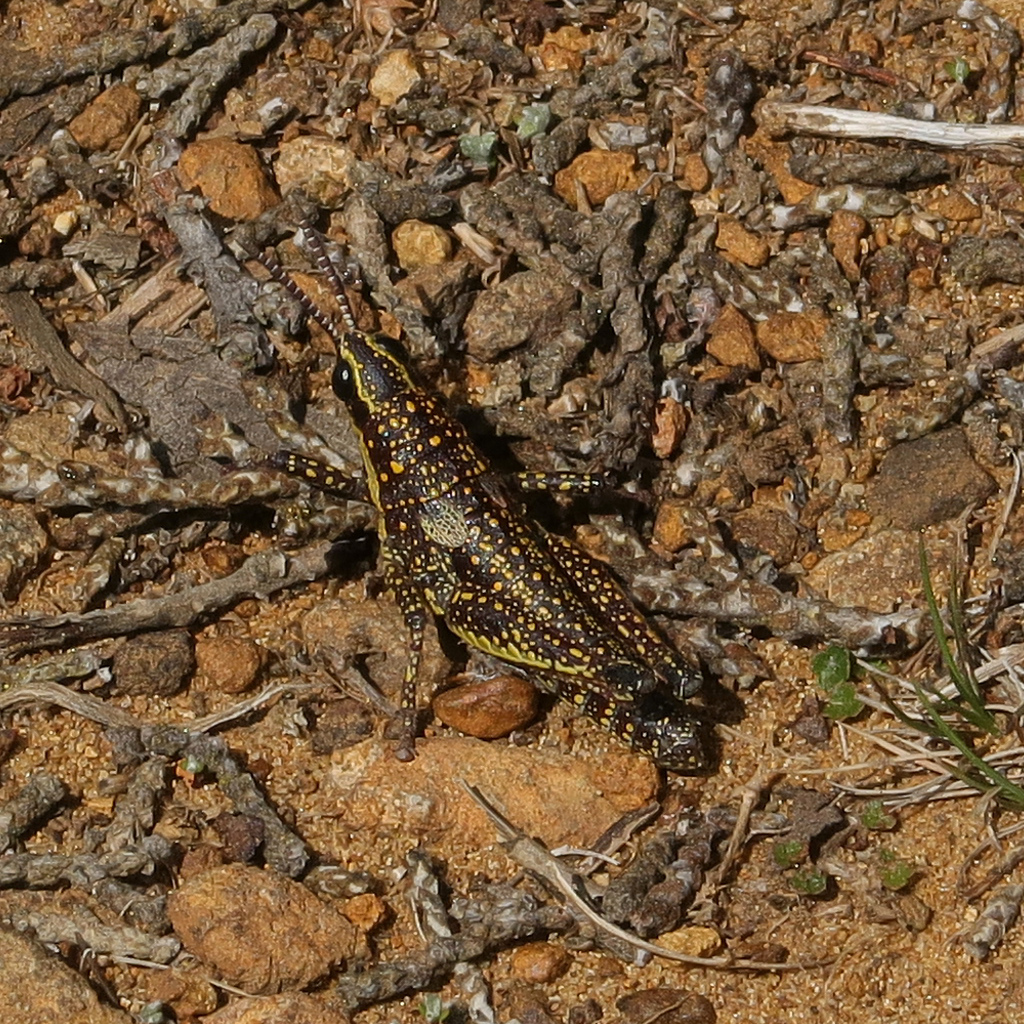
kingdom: Animalia
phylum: Arthropoda
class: Insecta
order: Orthoptera
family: Pyrgomorphidae
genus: Monistria
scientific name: Monistria concinna
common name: Southern pyrgomorph
